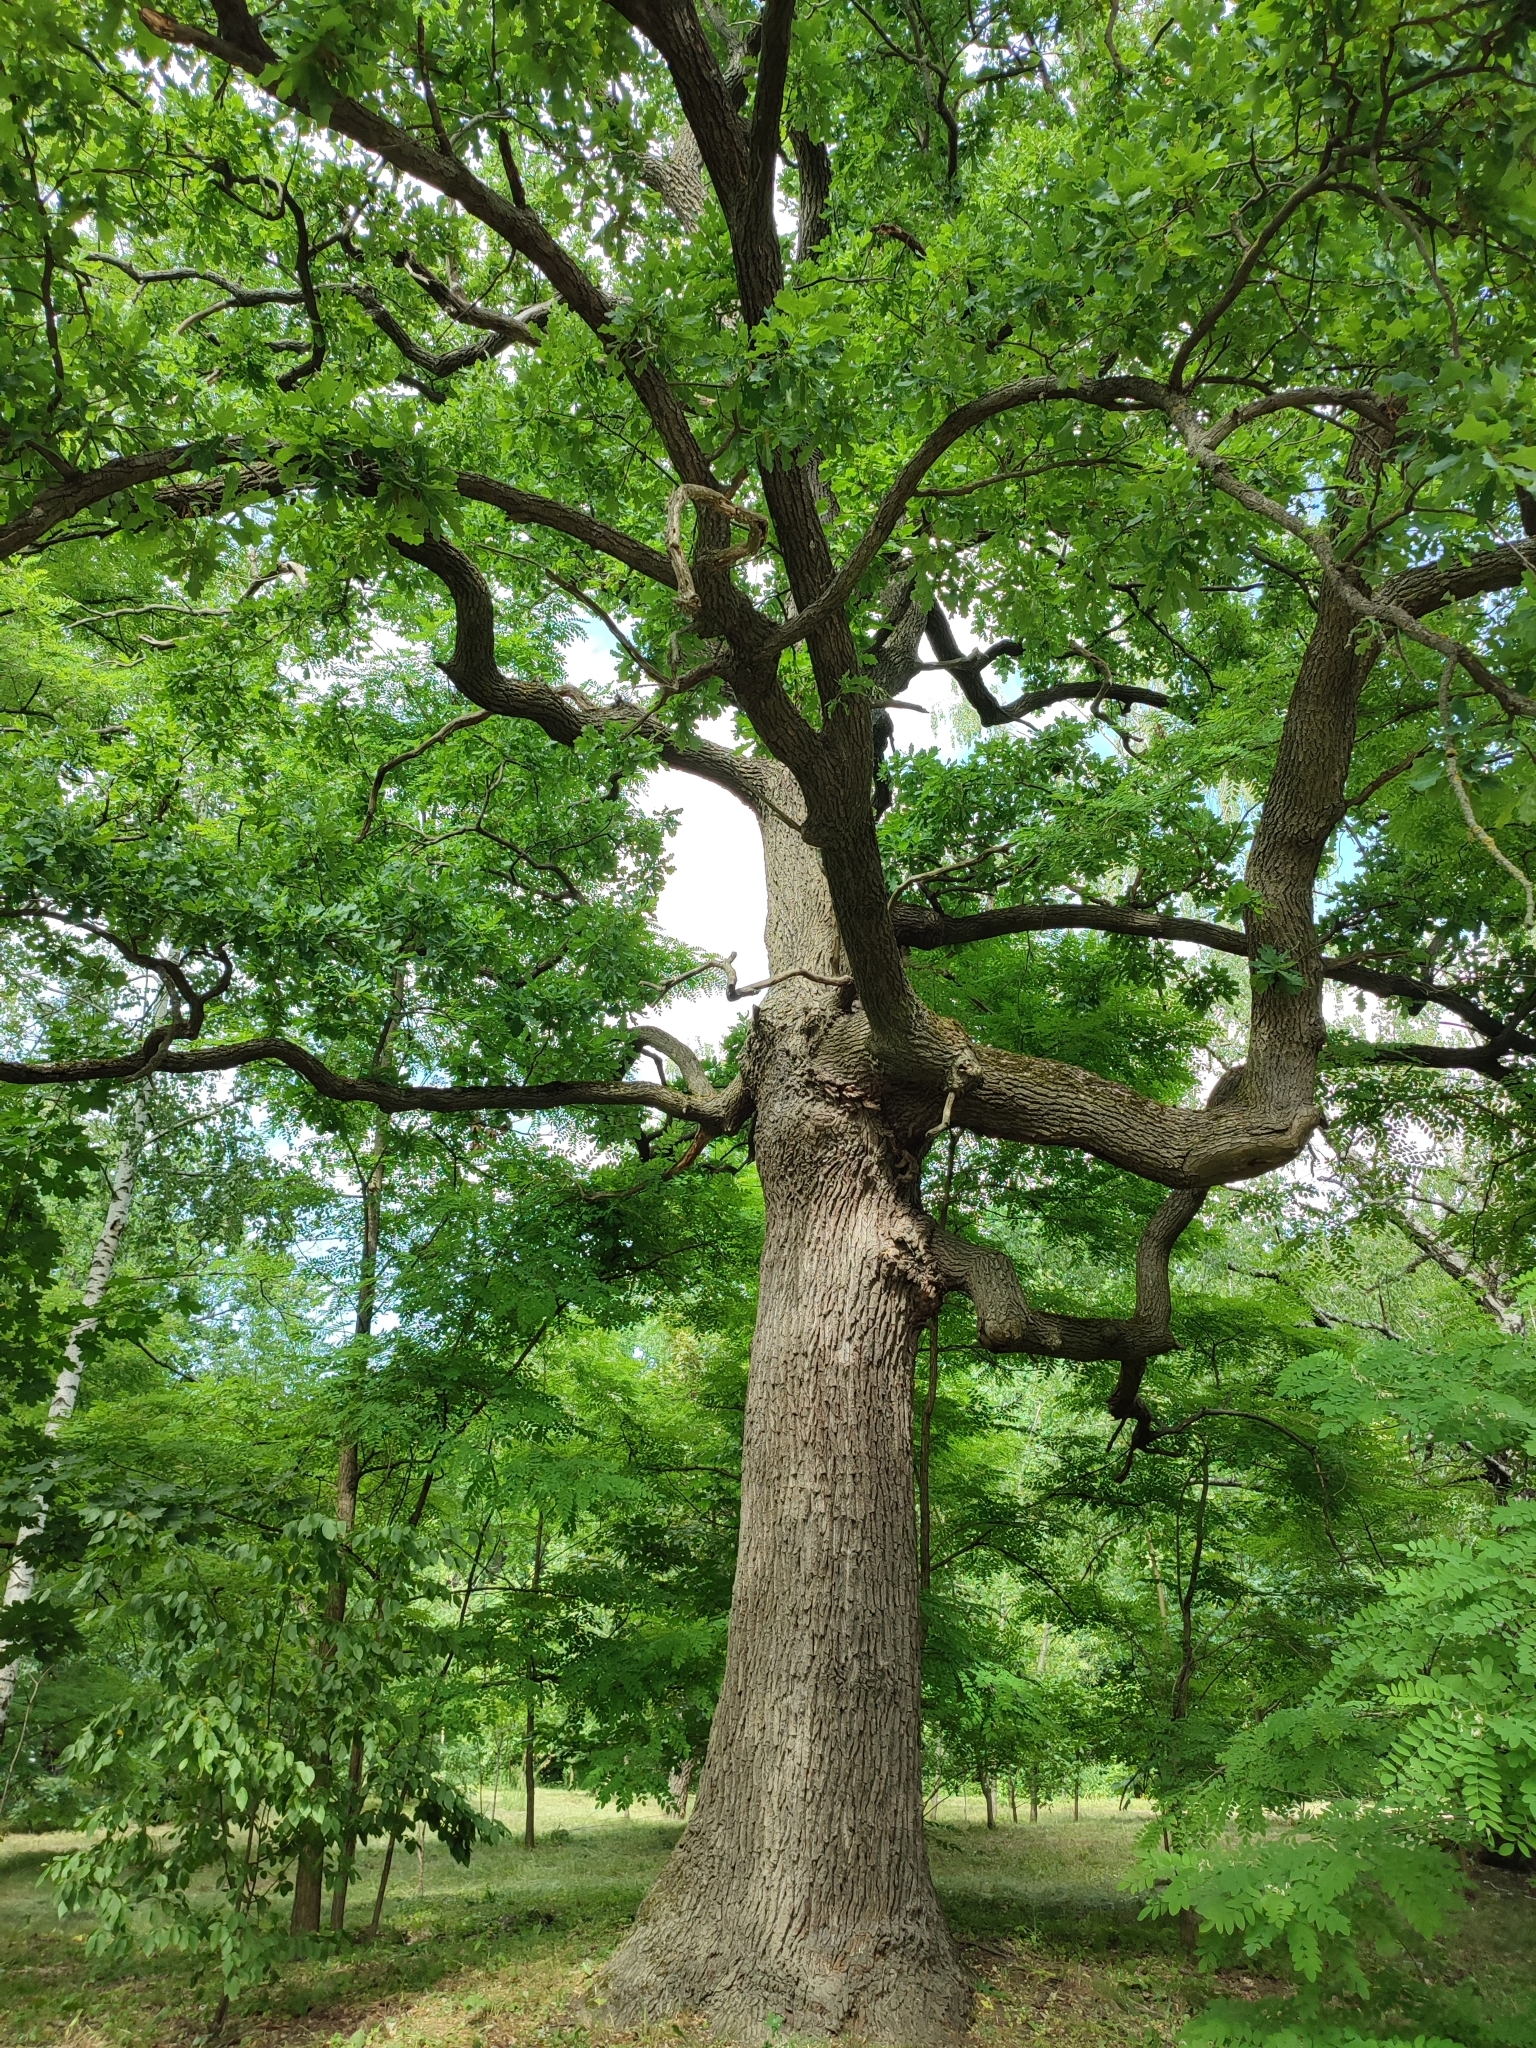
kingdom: Plantae
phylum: Tracheophyta
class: Magnoliopsida
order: Fagales
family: Fagaceae
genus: Quercus
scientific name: Quercus robur
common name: Pedunculate oak
